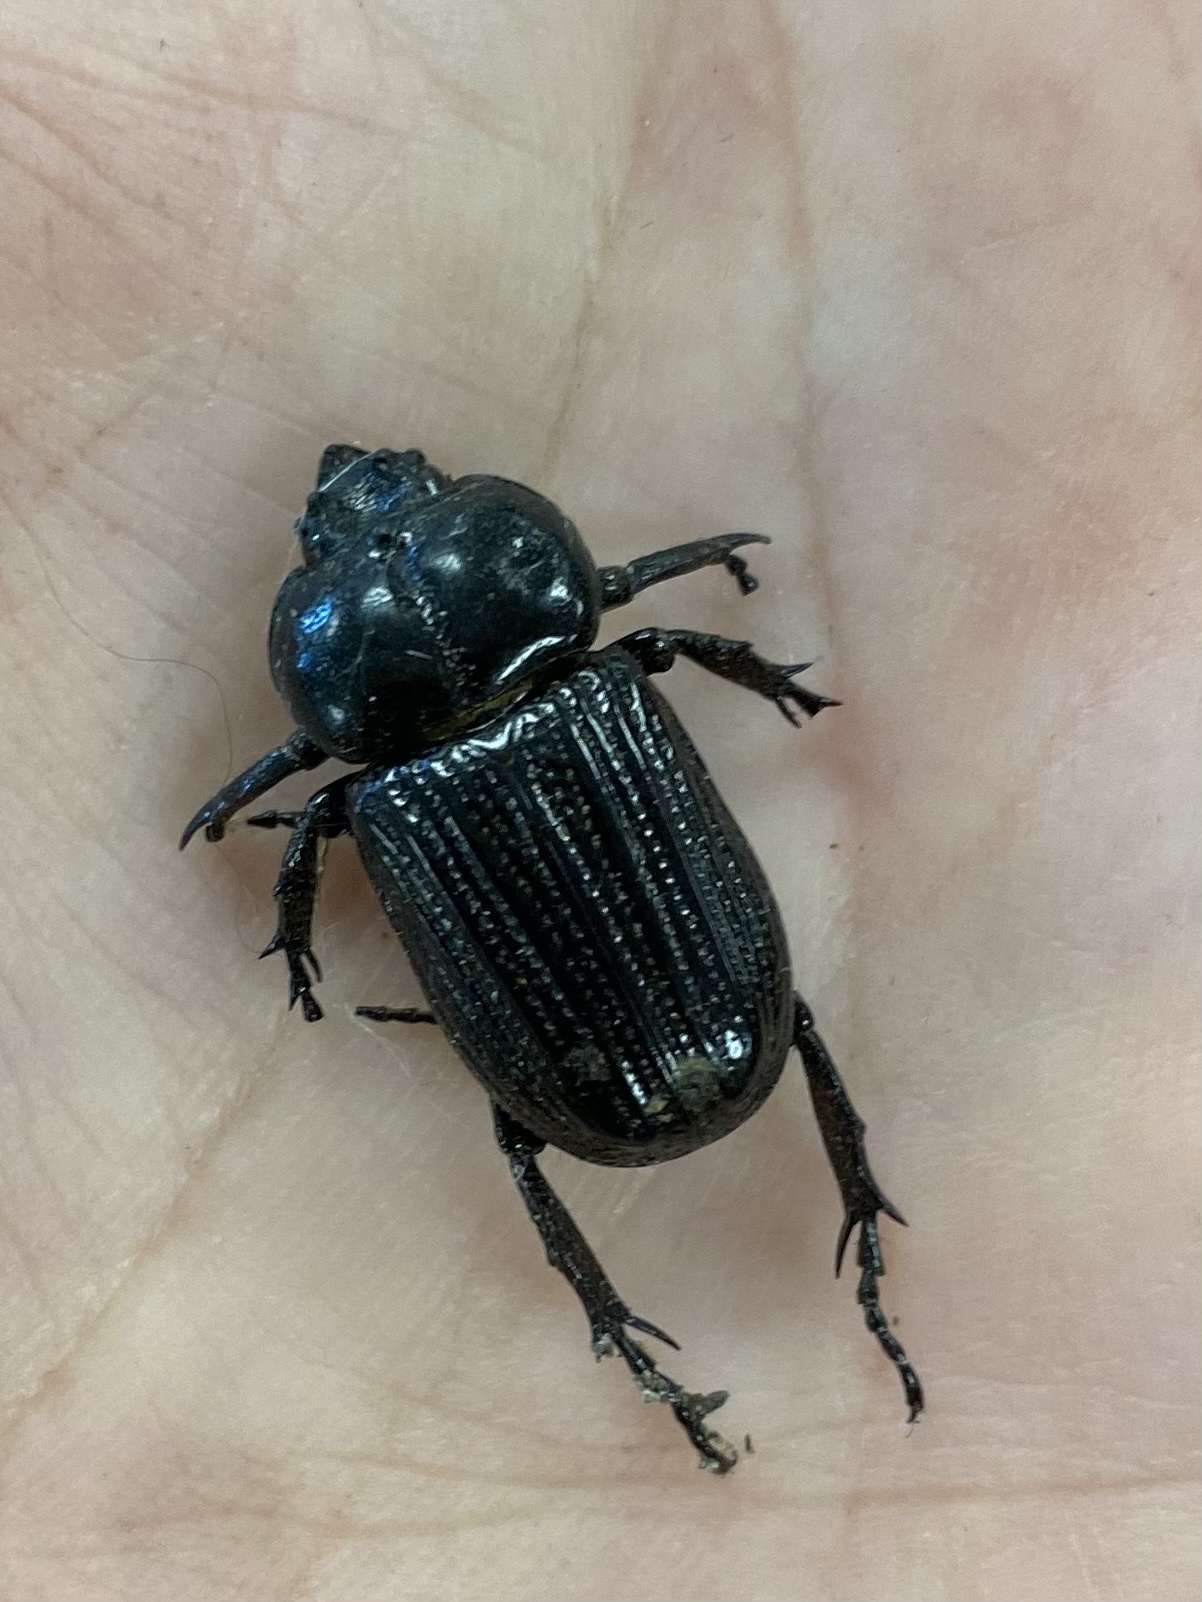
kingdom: Animalia
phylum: Arthropoda
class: Insecta
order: Coleoptera
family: Scarabaeidae
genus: Phileurus
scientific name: Phileurus valgus
